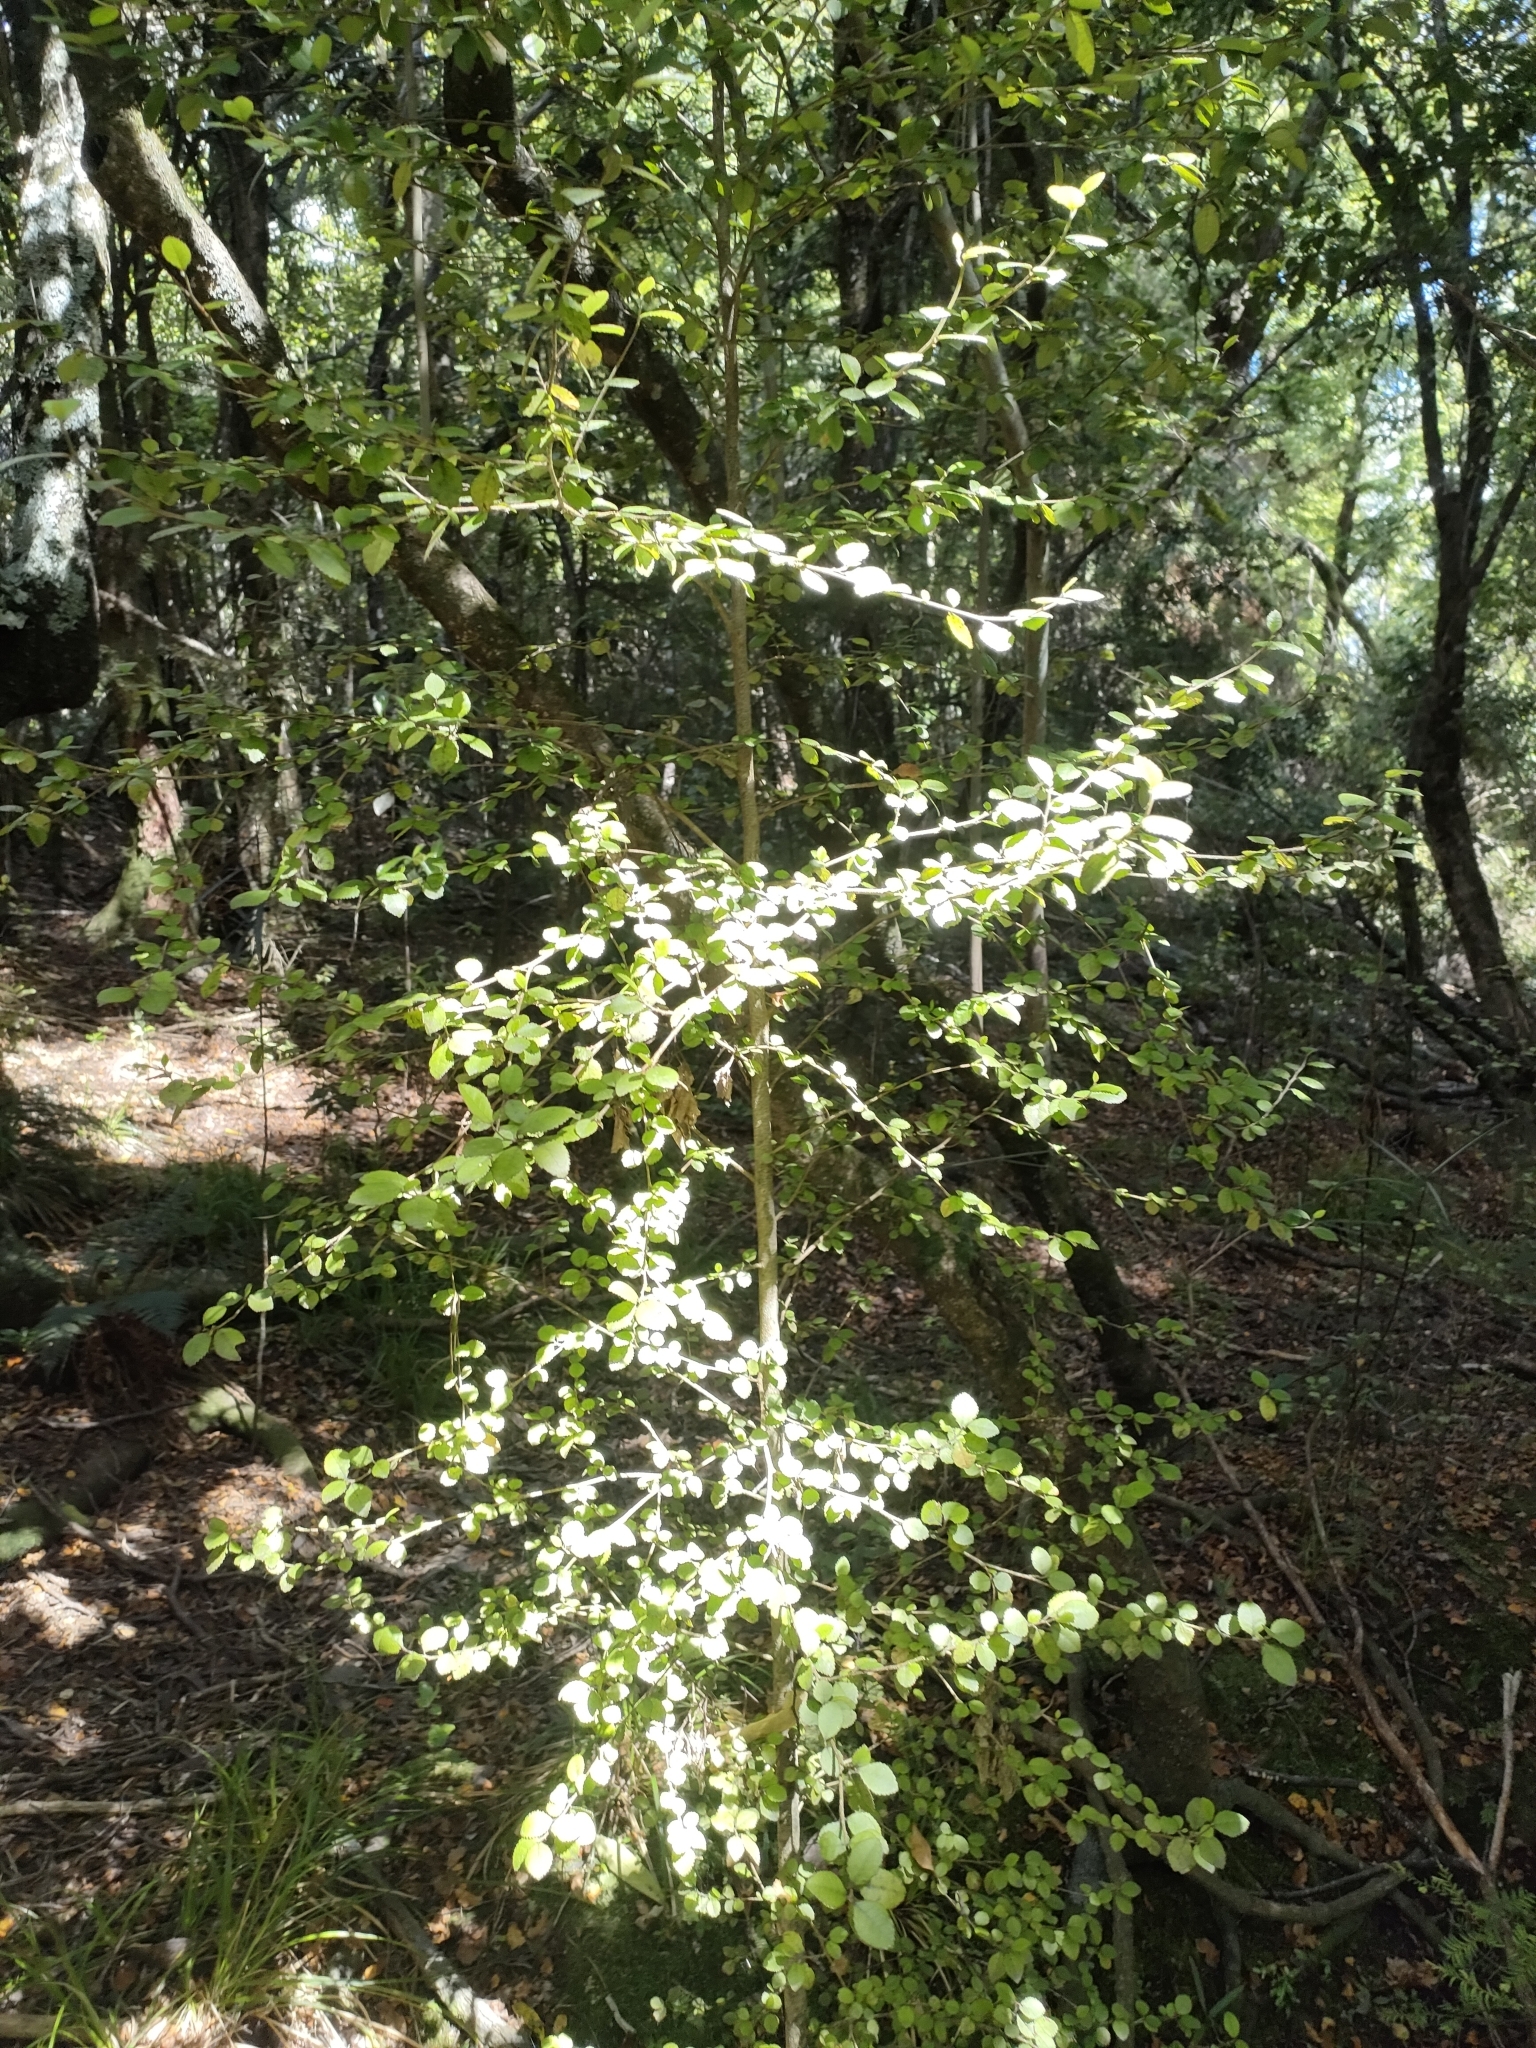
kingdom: Plantae
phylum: Tracheophyta
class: Magnoliopsida
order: Rosales
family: Moraceae
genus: Paratrophis
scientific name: Paratrophis microphylla
